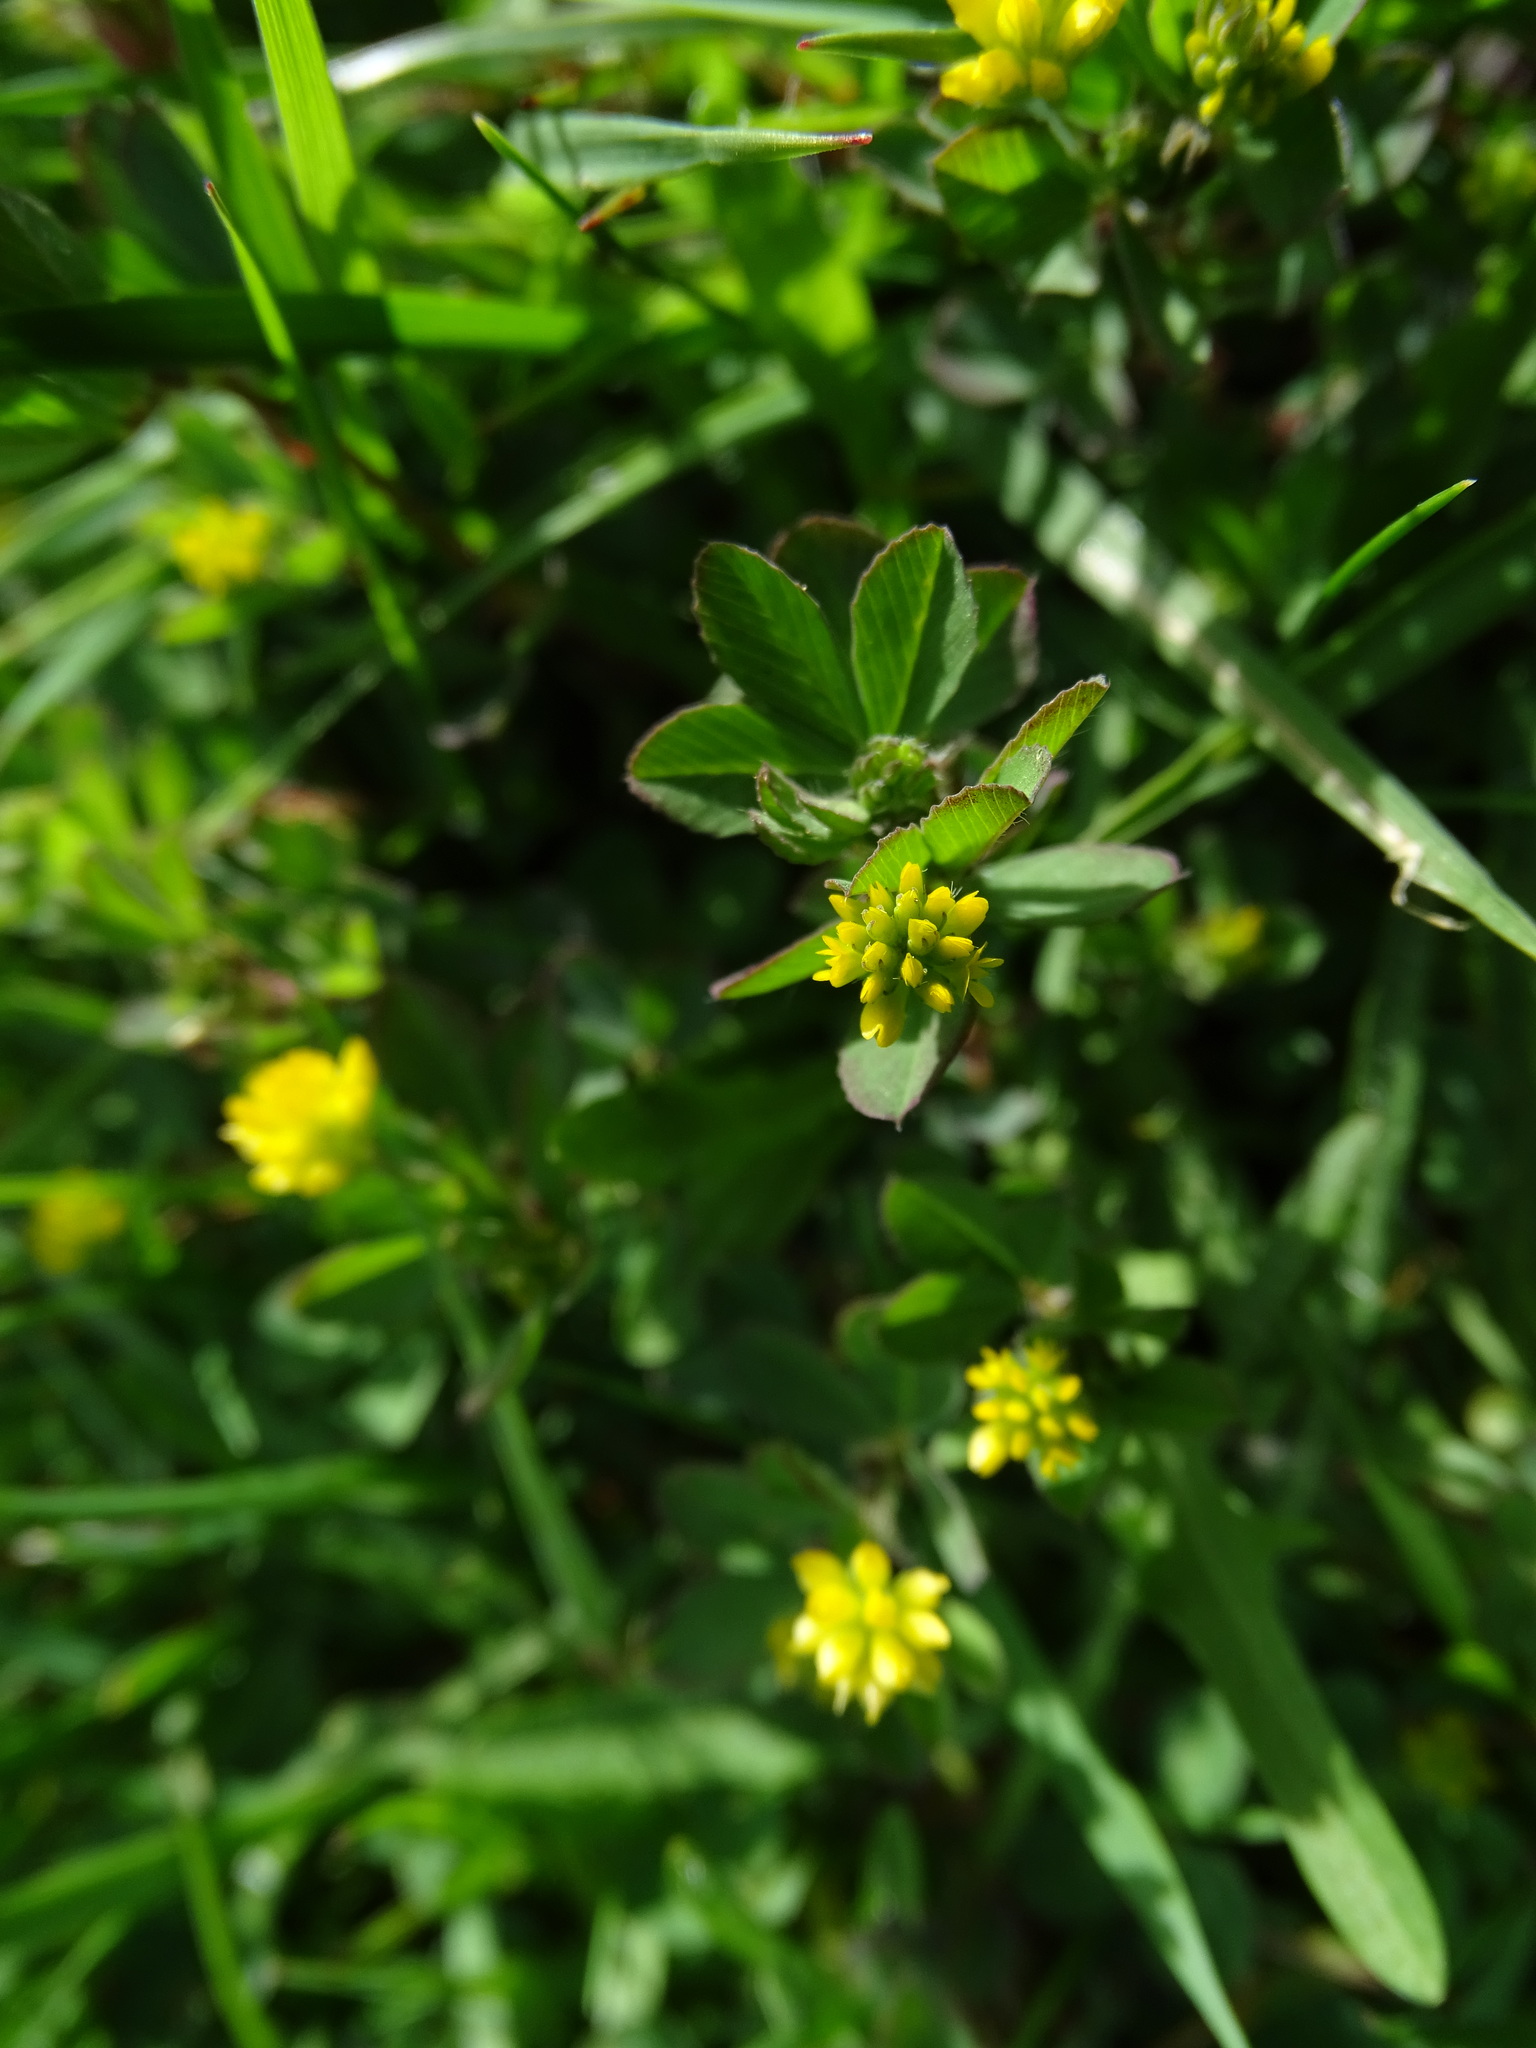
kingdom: Plantae
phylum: Tracheophyta
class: Magnoliopsida
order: Fabales
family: Fabaceae
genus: Trifolium
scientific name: Trifolium dubium
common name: Suckling clover
